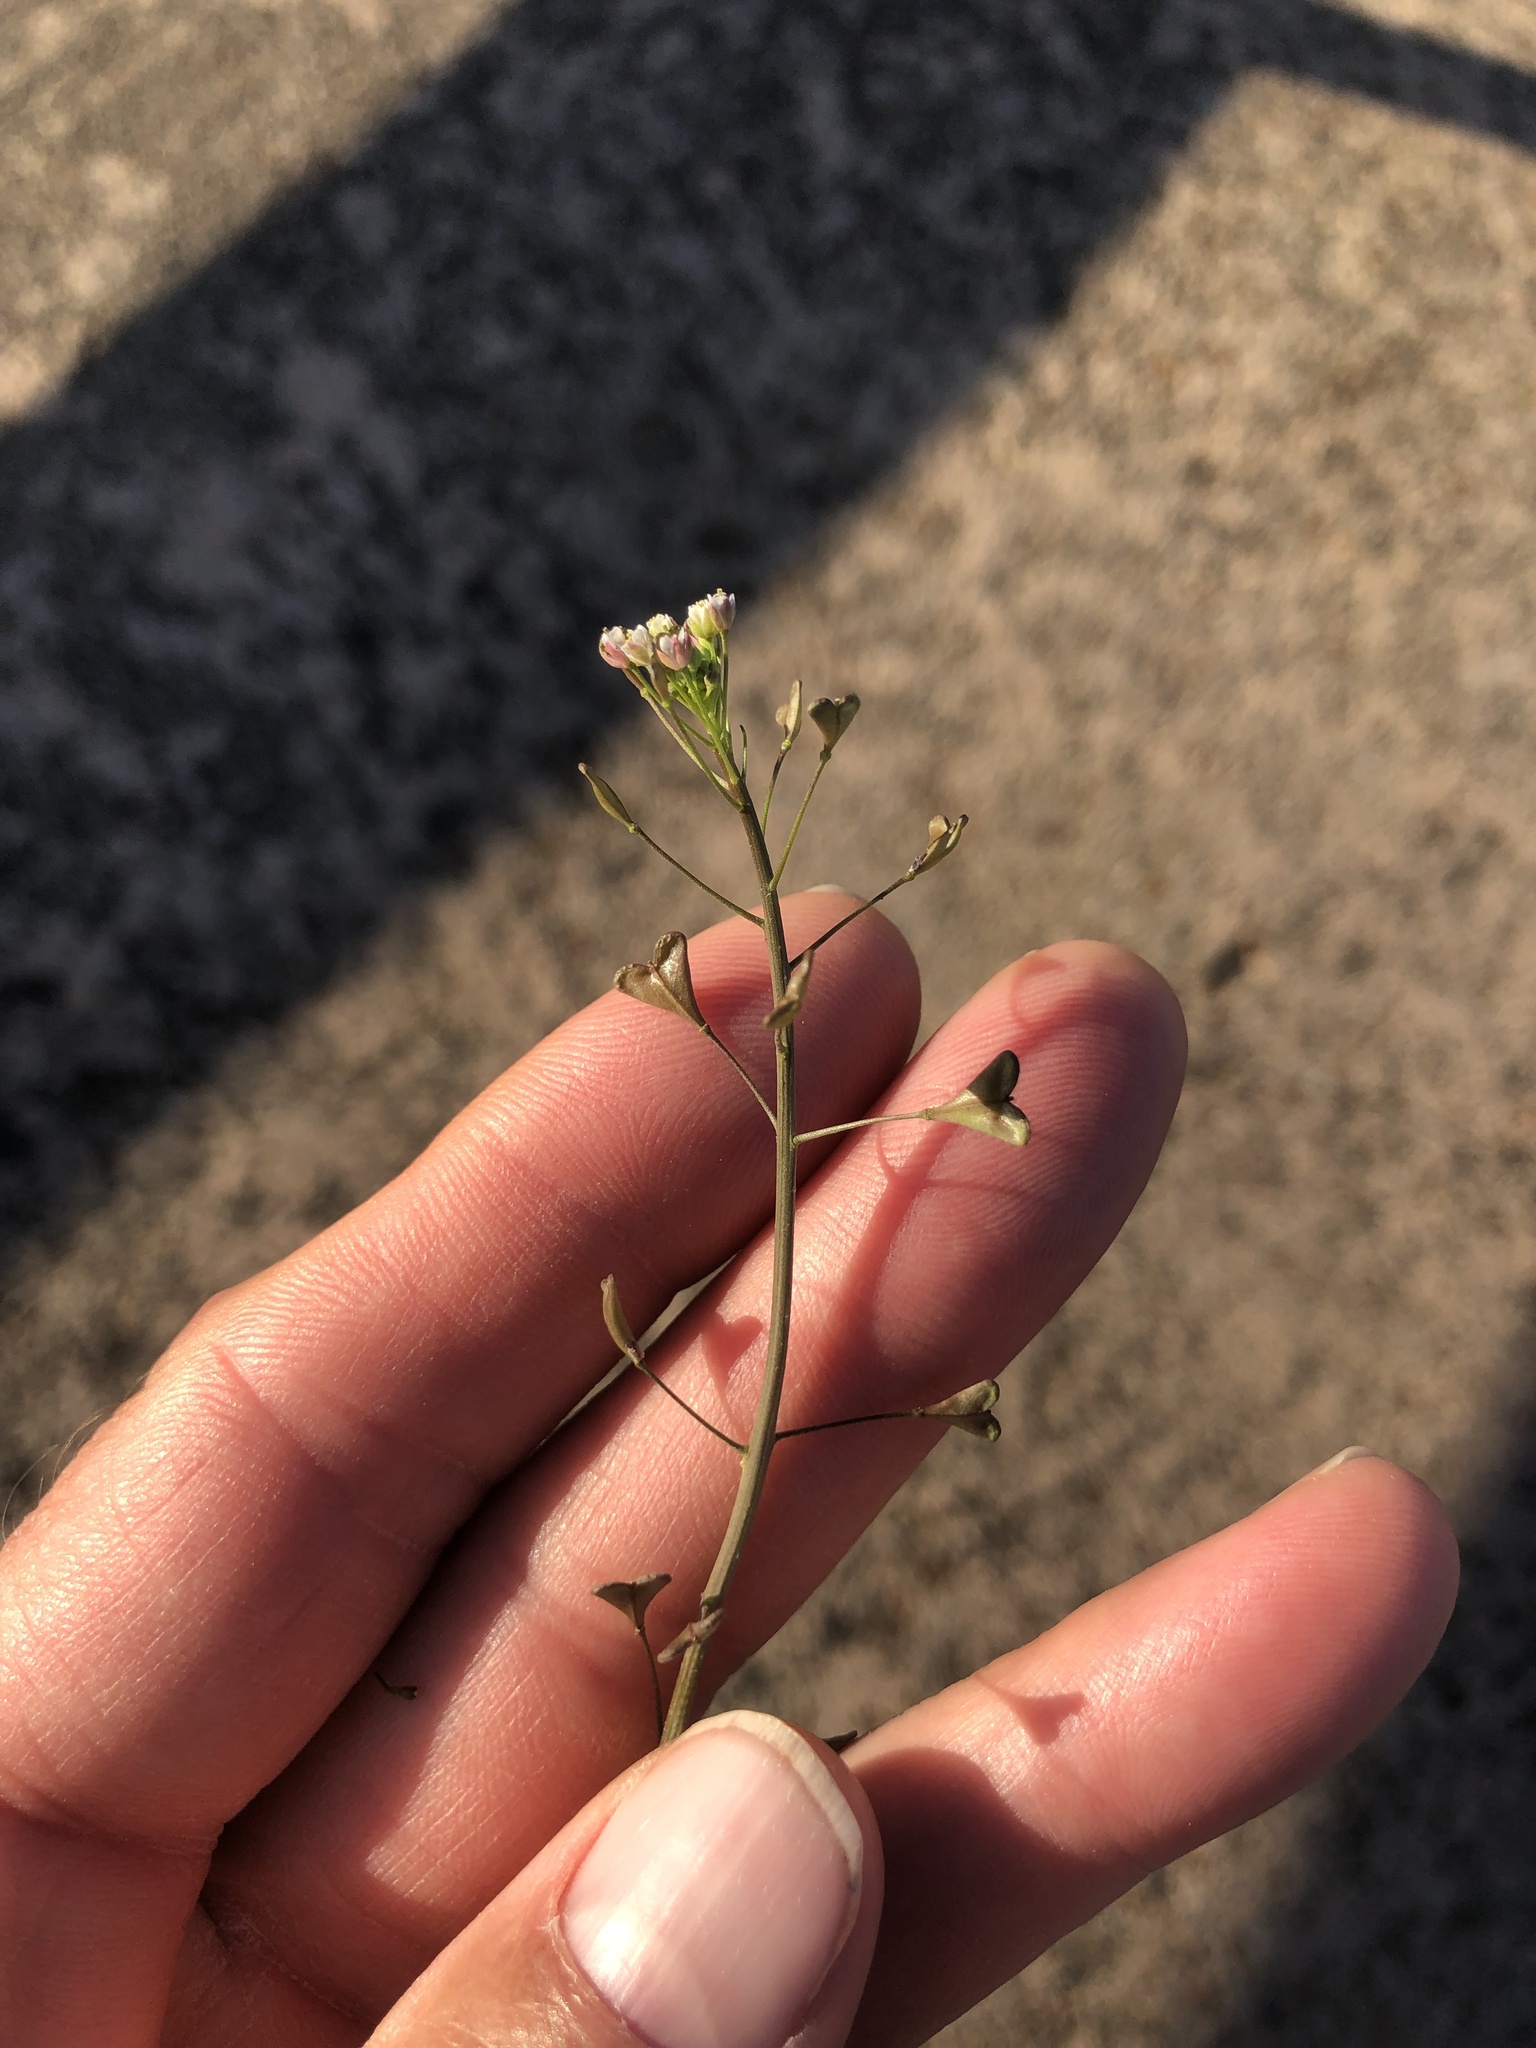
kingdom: Plantae
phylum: Tracheophyta
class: Magnoliopsida
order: Brassicales
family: Brassicaceae
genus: Capsella
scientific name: Capsella bursa-pastoris
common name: Shepherd's purse
